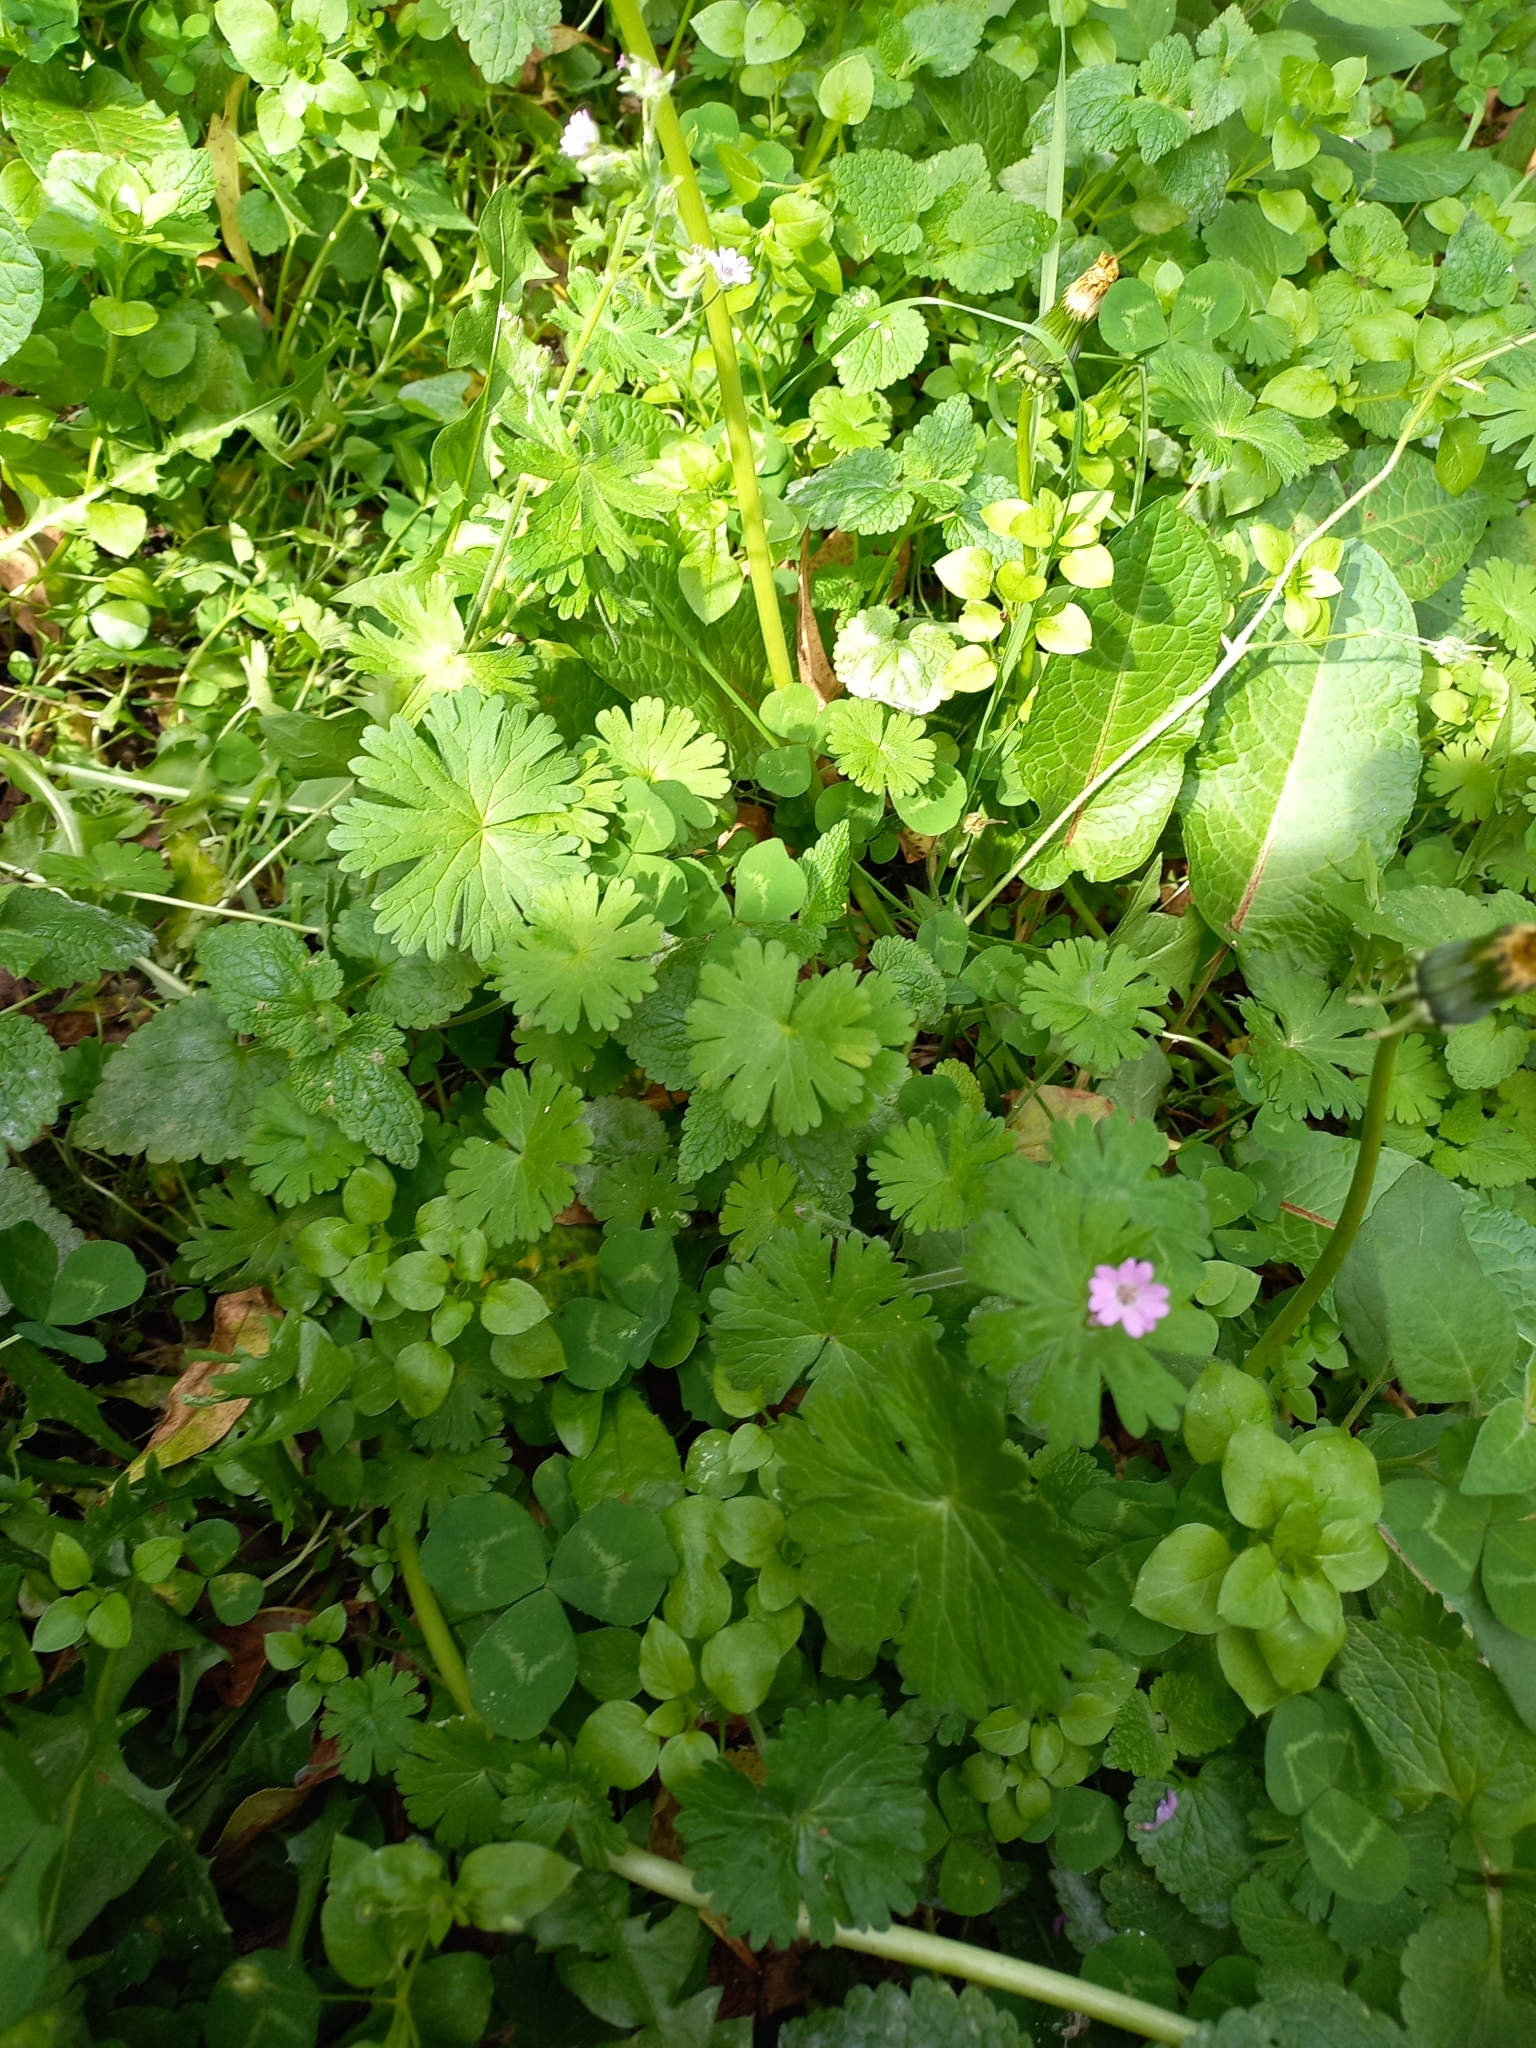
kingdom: Plantae
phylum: Tracheophyta
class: Magnoliopsida
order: Geraniales
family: Geraniaceae
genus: Geranium
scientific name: Geranium molle
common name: Dove's-foot crane's-bill
